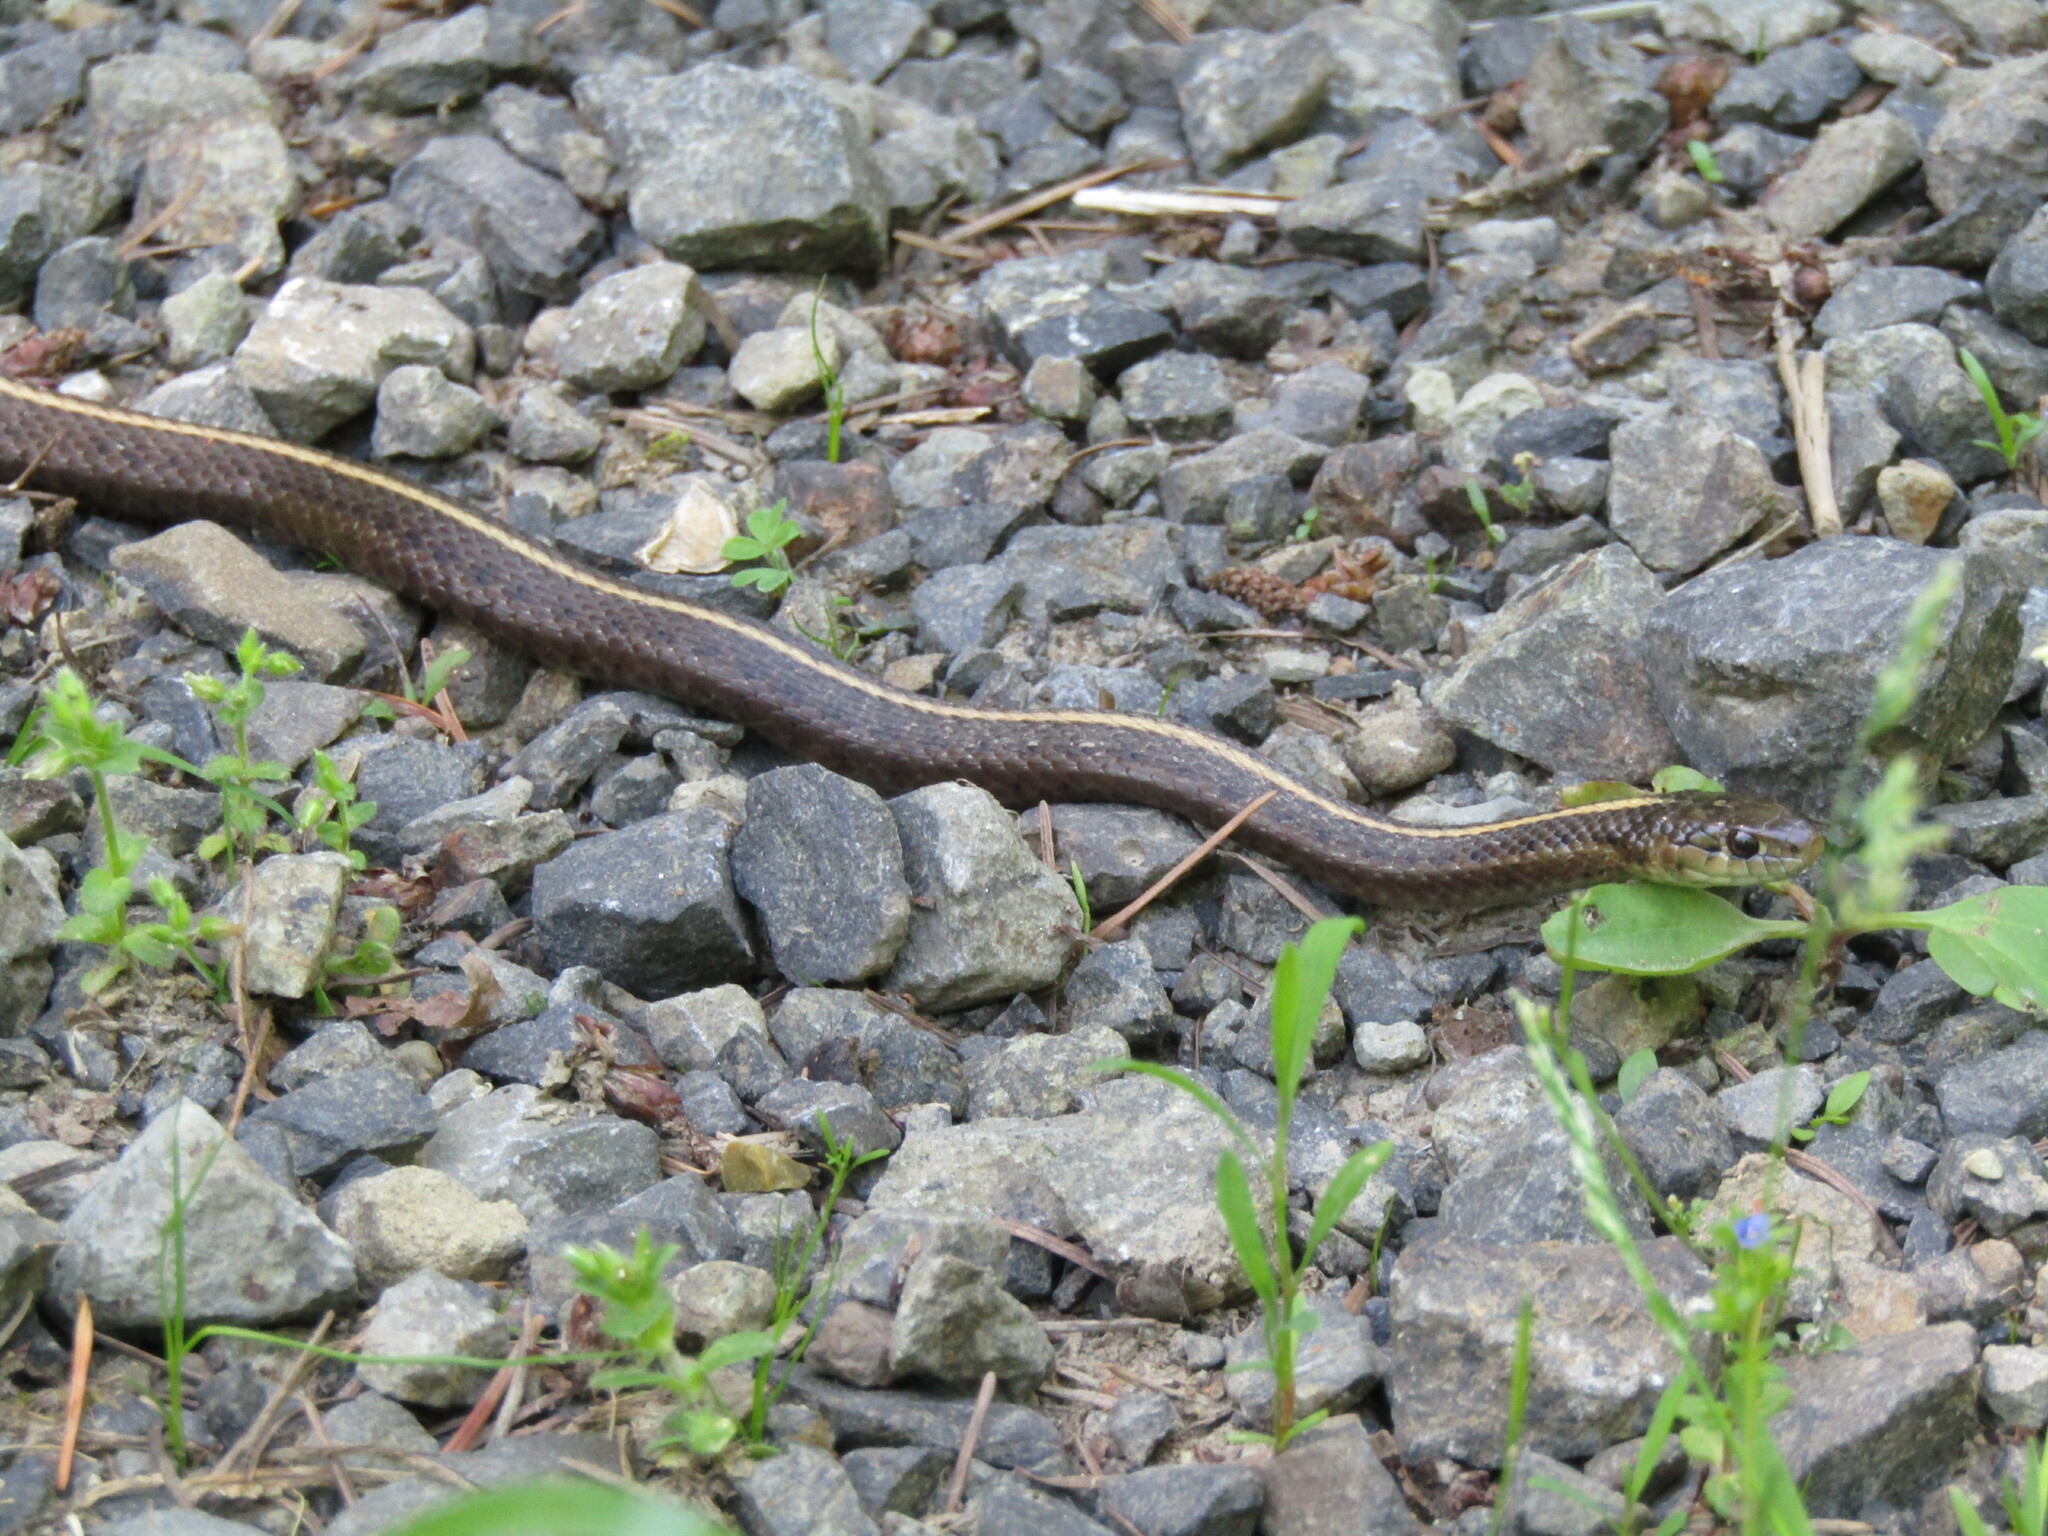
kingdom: Animalia
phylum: Chordata
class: Squamata
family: Colubridae
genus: Thamnophis
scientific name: Thamnophis ordinoides
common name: Northwestern garter snake
